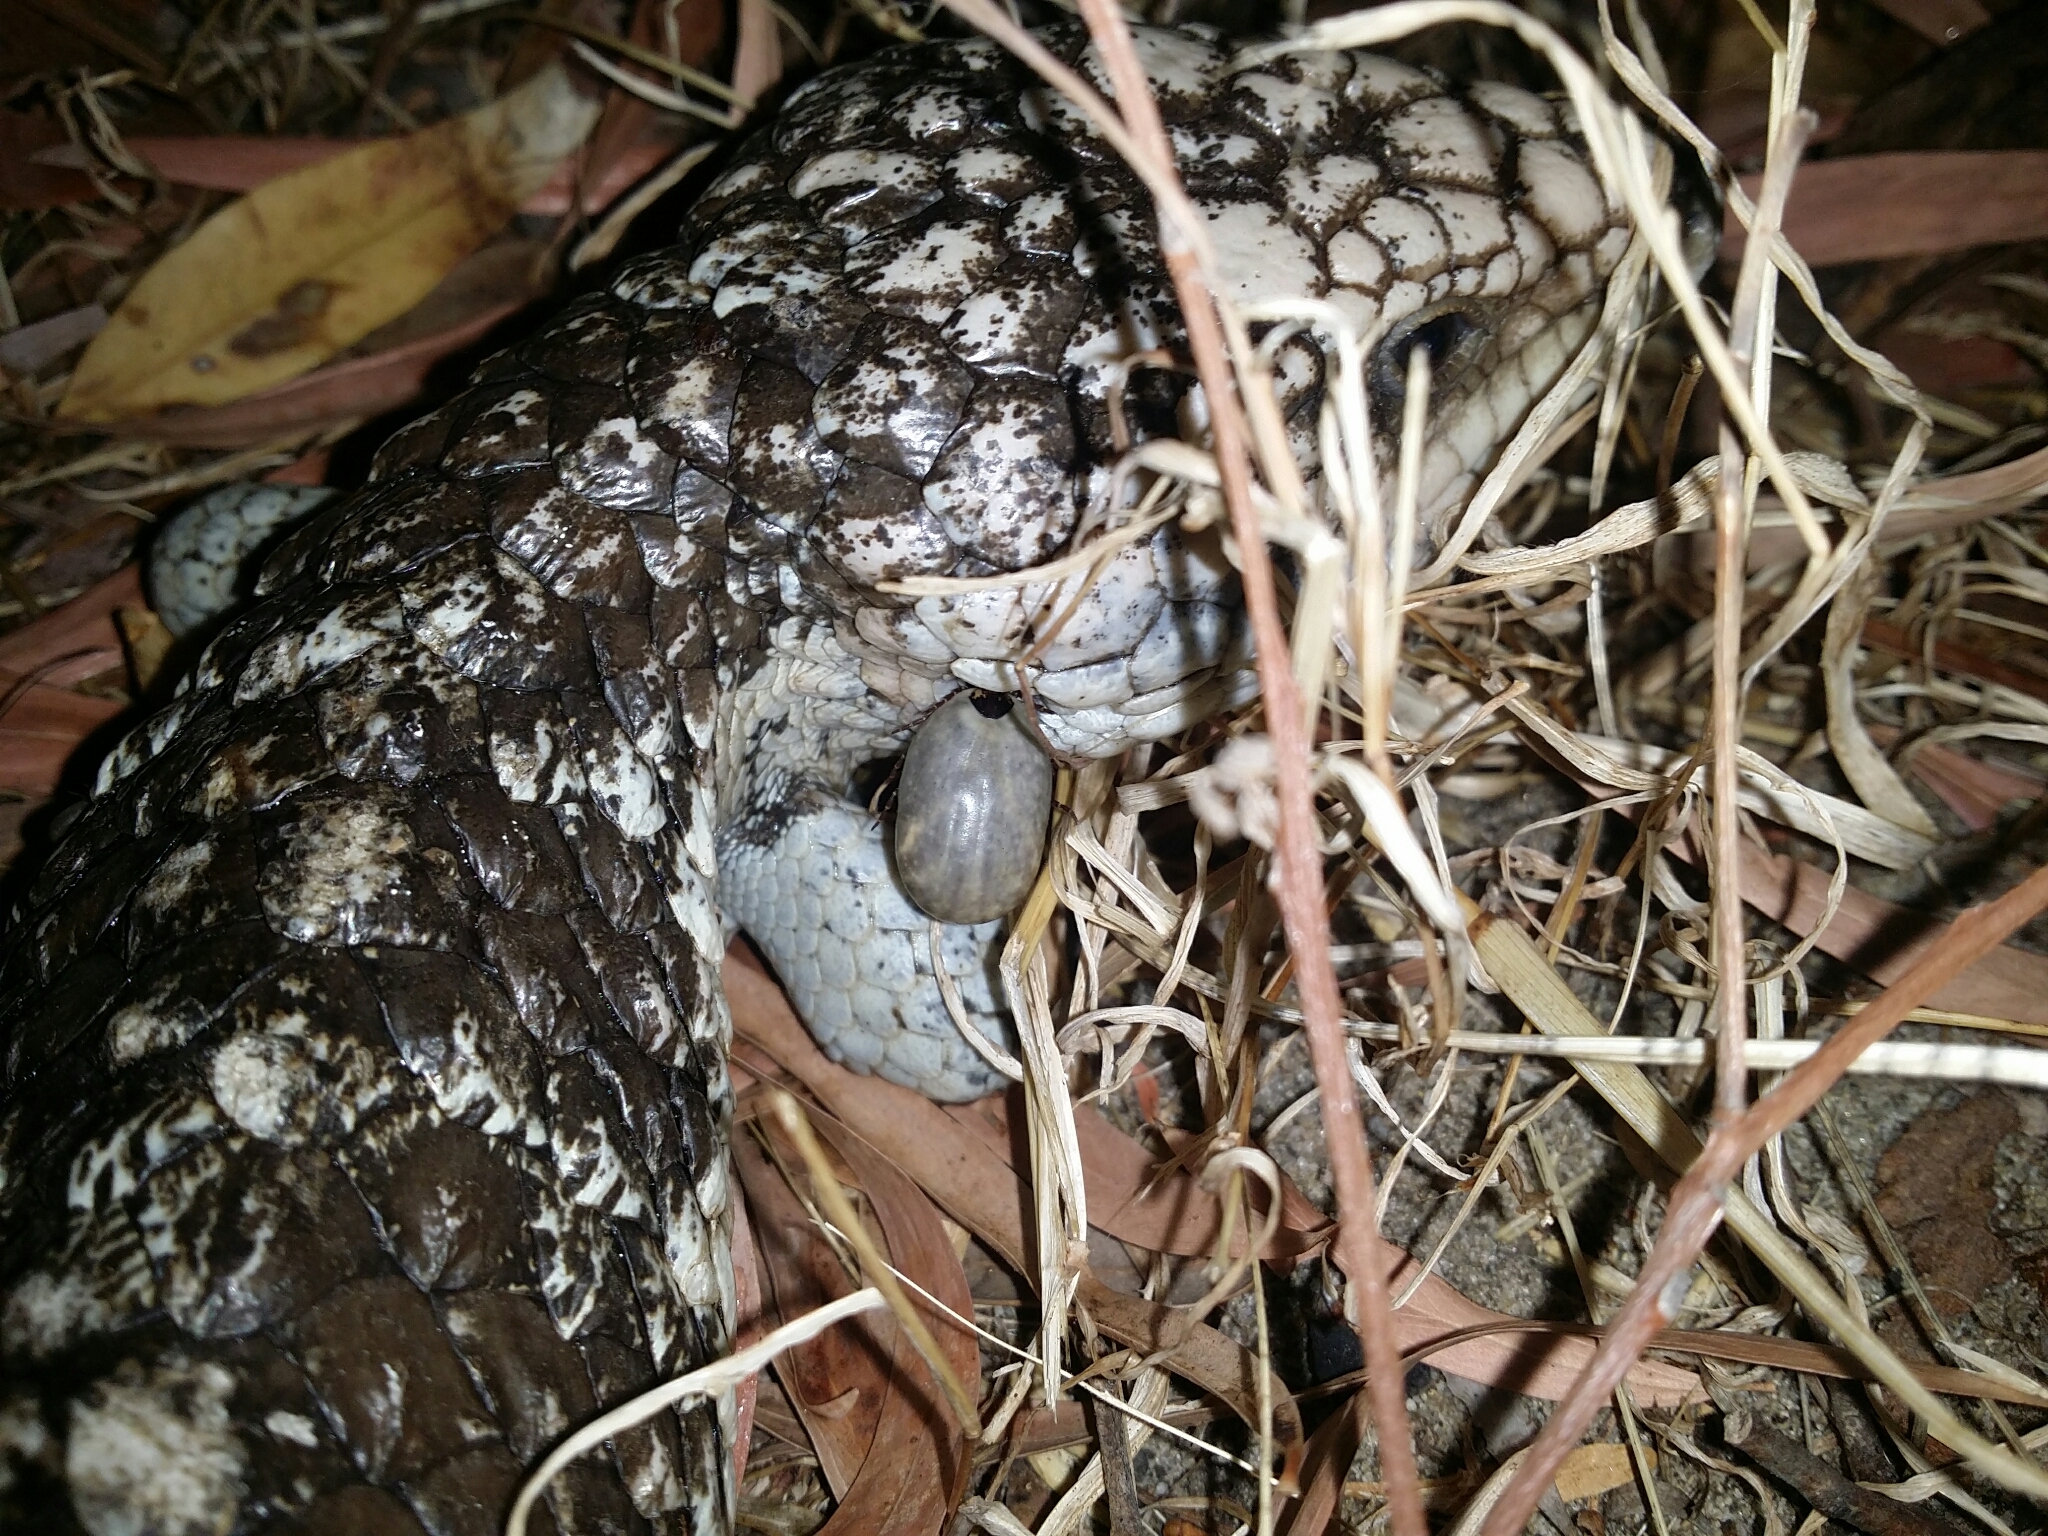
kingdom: Animalia
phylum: Chordata
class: Squamata
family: Scincidae
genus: Tiliqua
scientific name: Tiliqua rugosa
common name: Pinecone lizard
